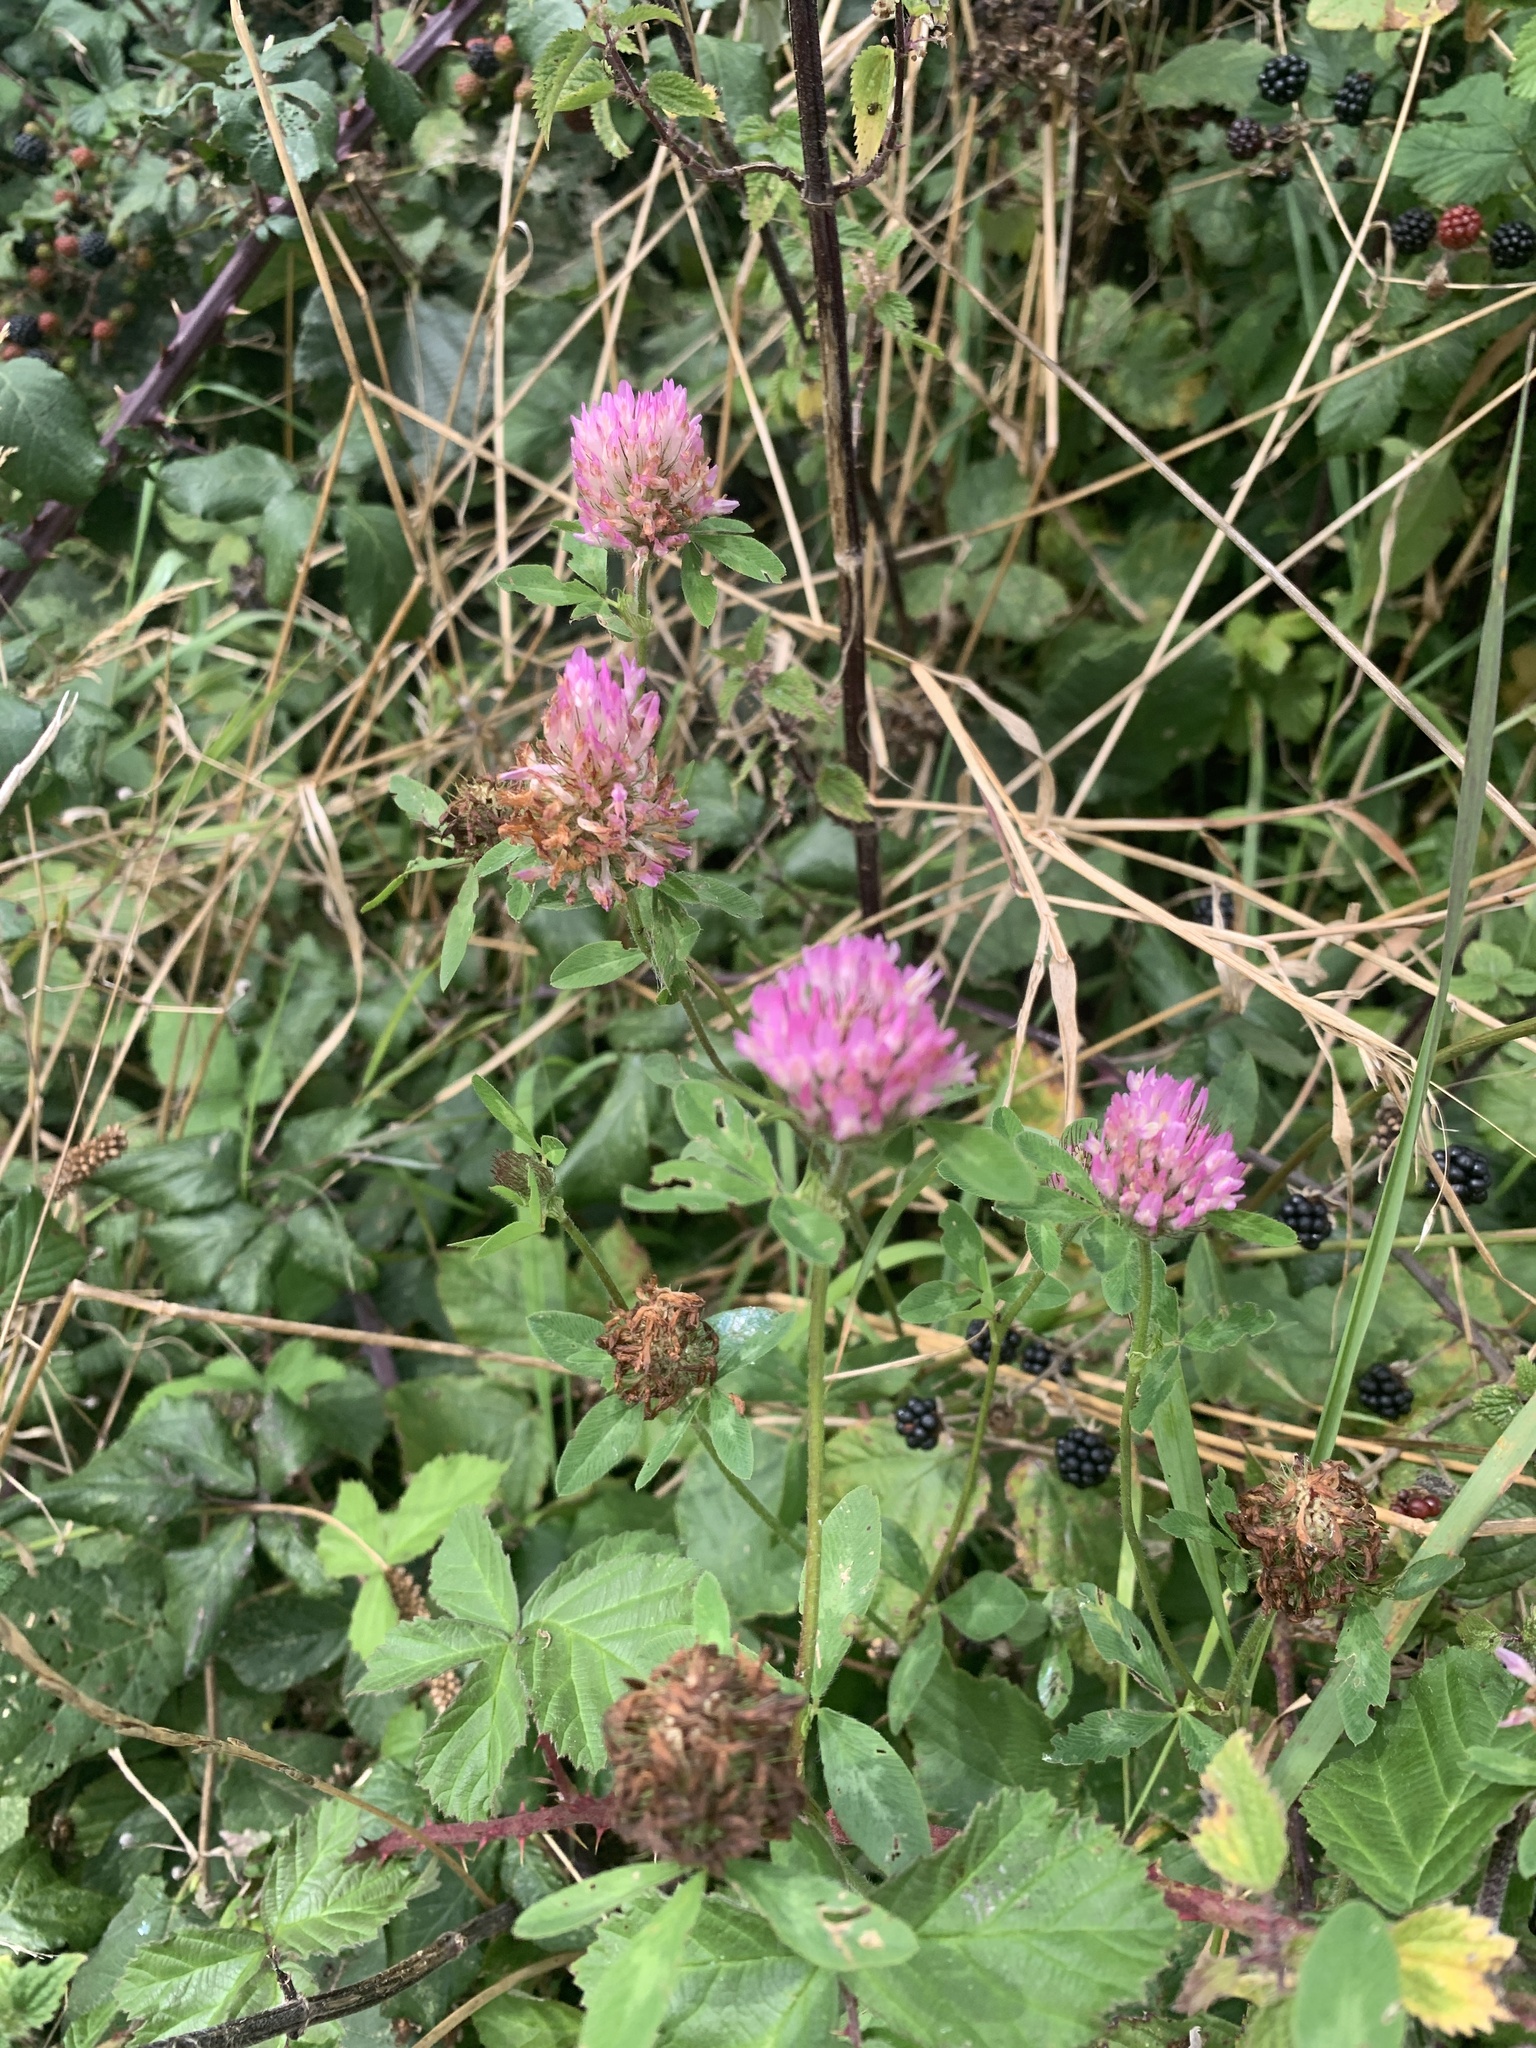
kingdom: Plantae
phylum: Tracheophyta
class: Magnoliopsida
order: Fabales
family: Fabaceae
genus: Trifolium
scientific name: Trifolium pratense
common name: Red clover
